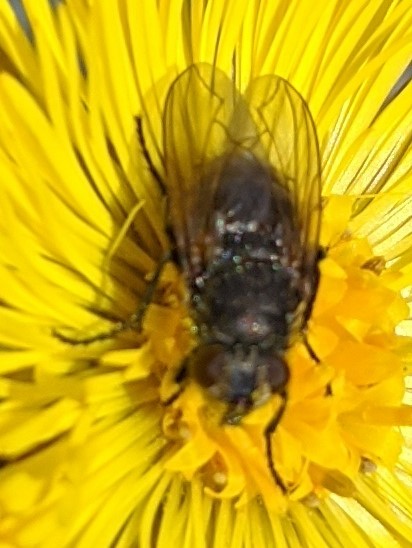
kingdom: Animalia
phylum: Arthropoda
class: Insecta
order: Diptera
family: Polleniidae
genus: Pollenia
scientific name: Pollenia
